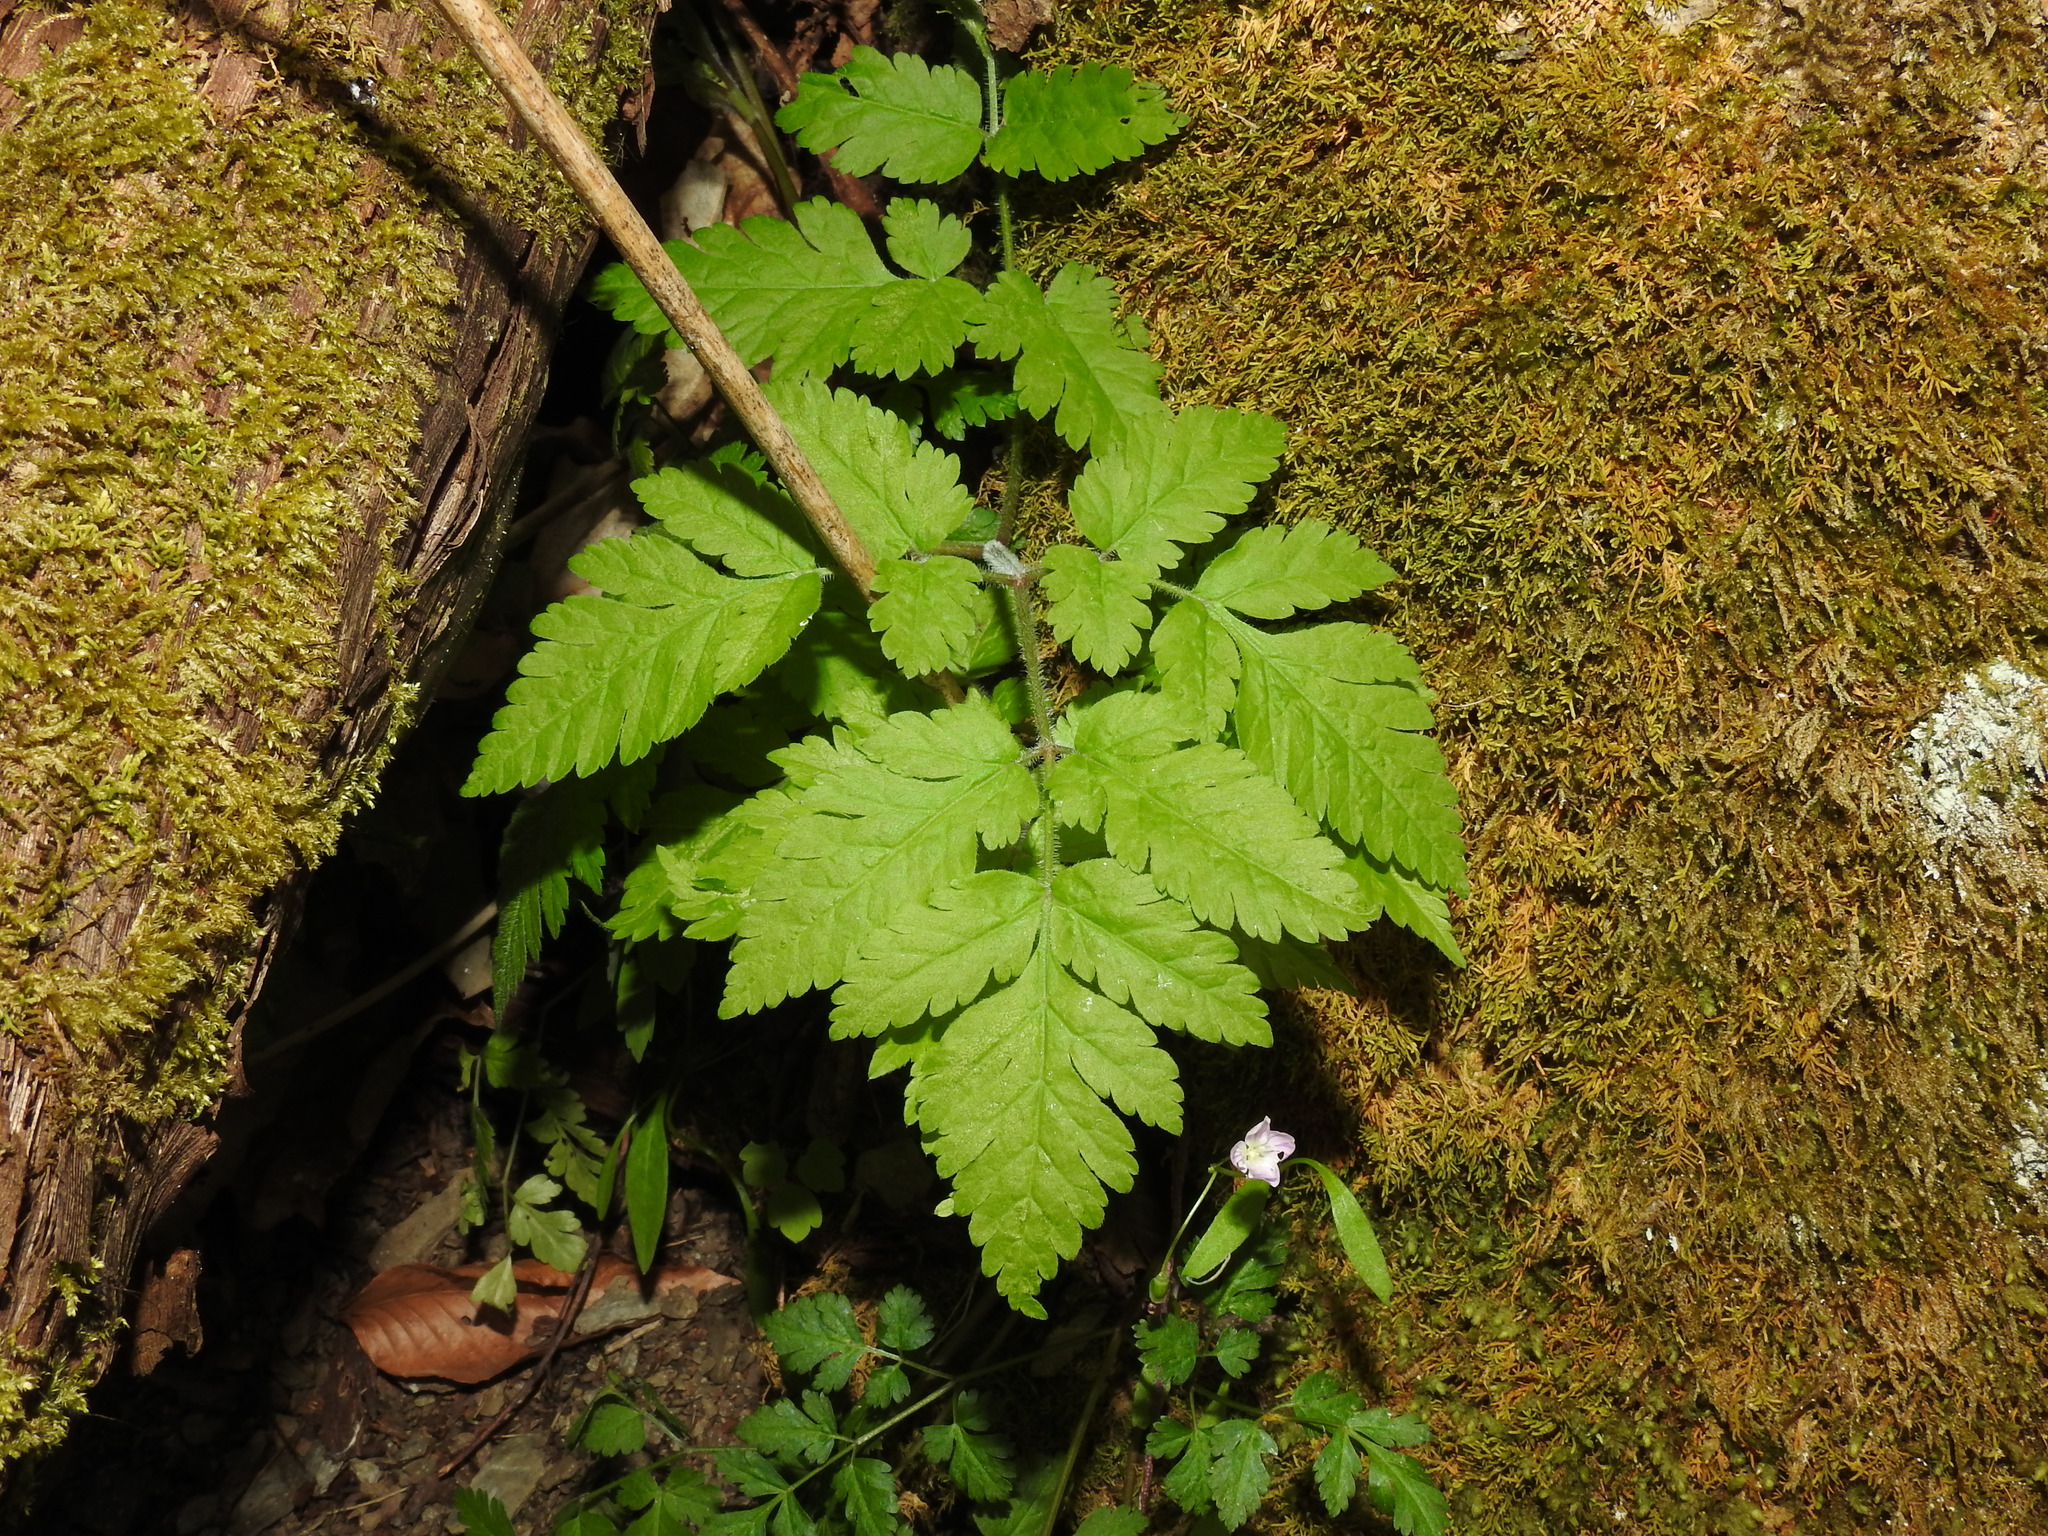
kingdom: Plantae
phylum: Tracheophyta
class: Magnoliopsida
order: Apiales
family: Apiaceae
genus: Osmorhiza
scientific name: Osmorhiza claytonii
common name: Hairy sweet cicely
